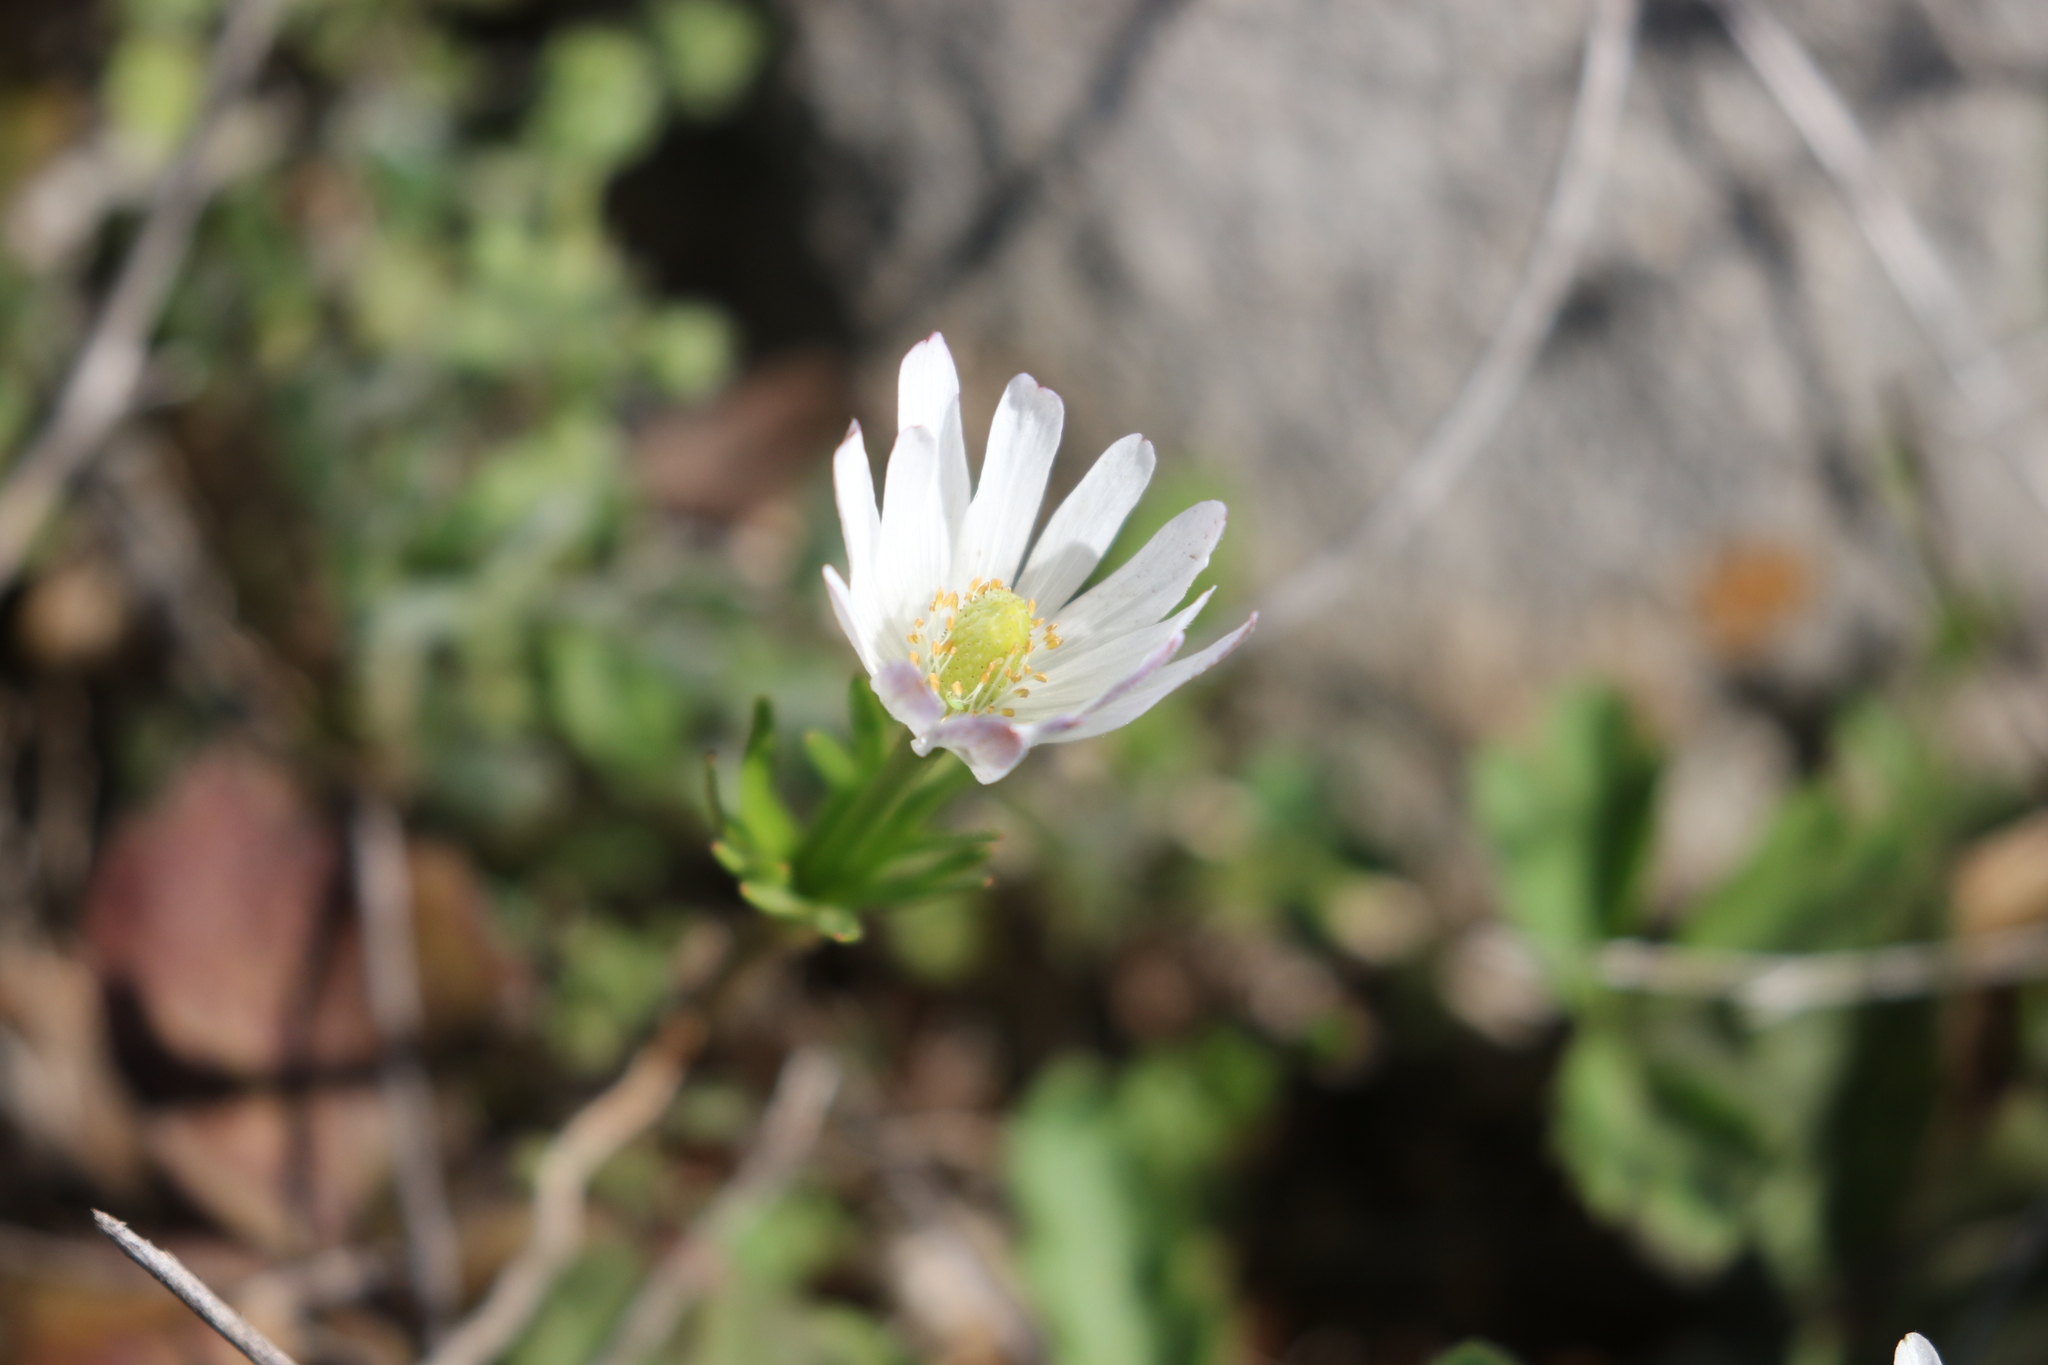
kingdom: Plantae
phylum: Tracheophyta
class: Magnoliopsida
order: Ranunculales
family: Ranunculaceae
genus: Anemone
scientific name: Anemone berlandieri
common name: Ten-petal anemone
